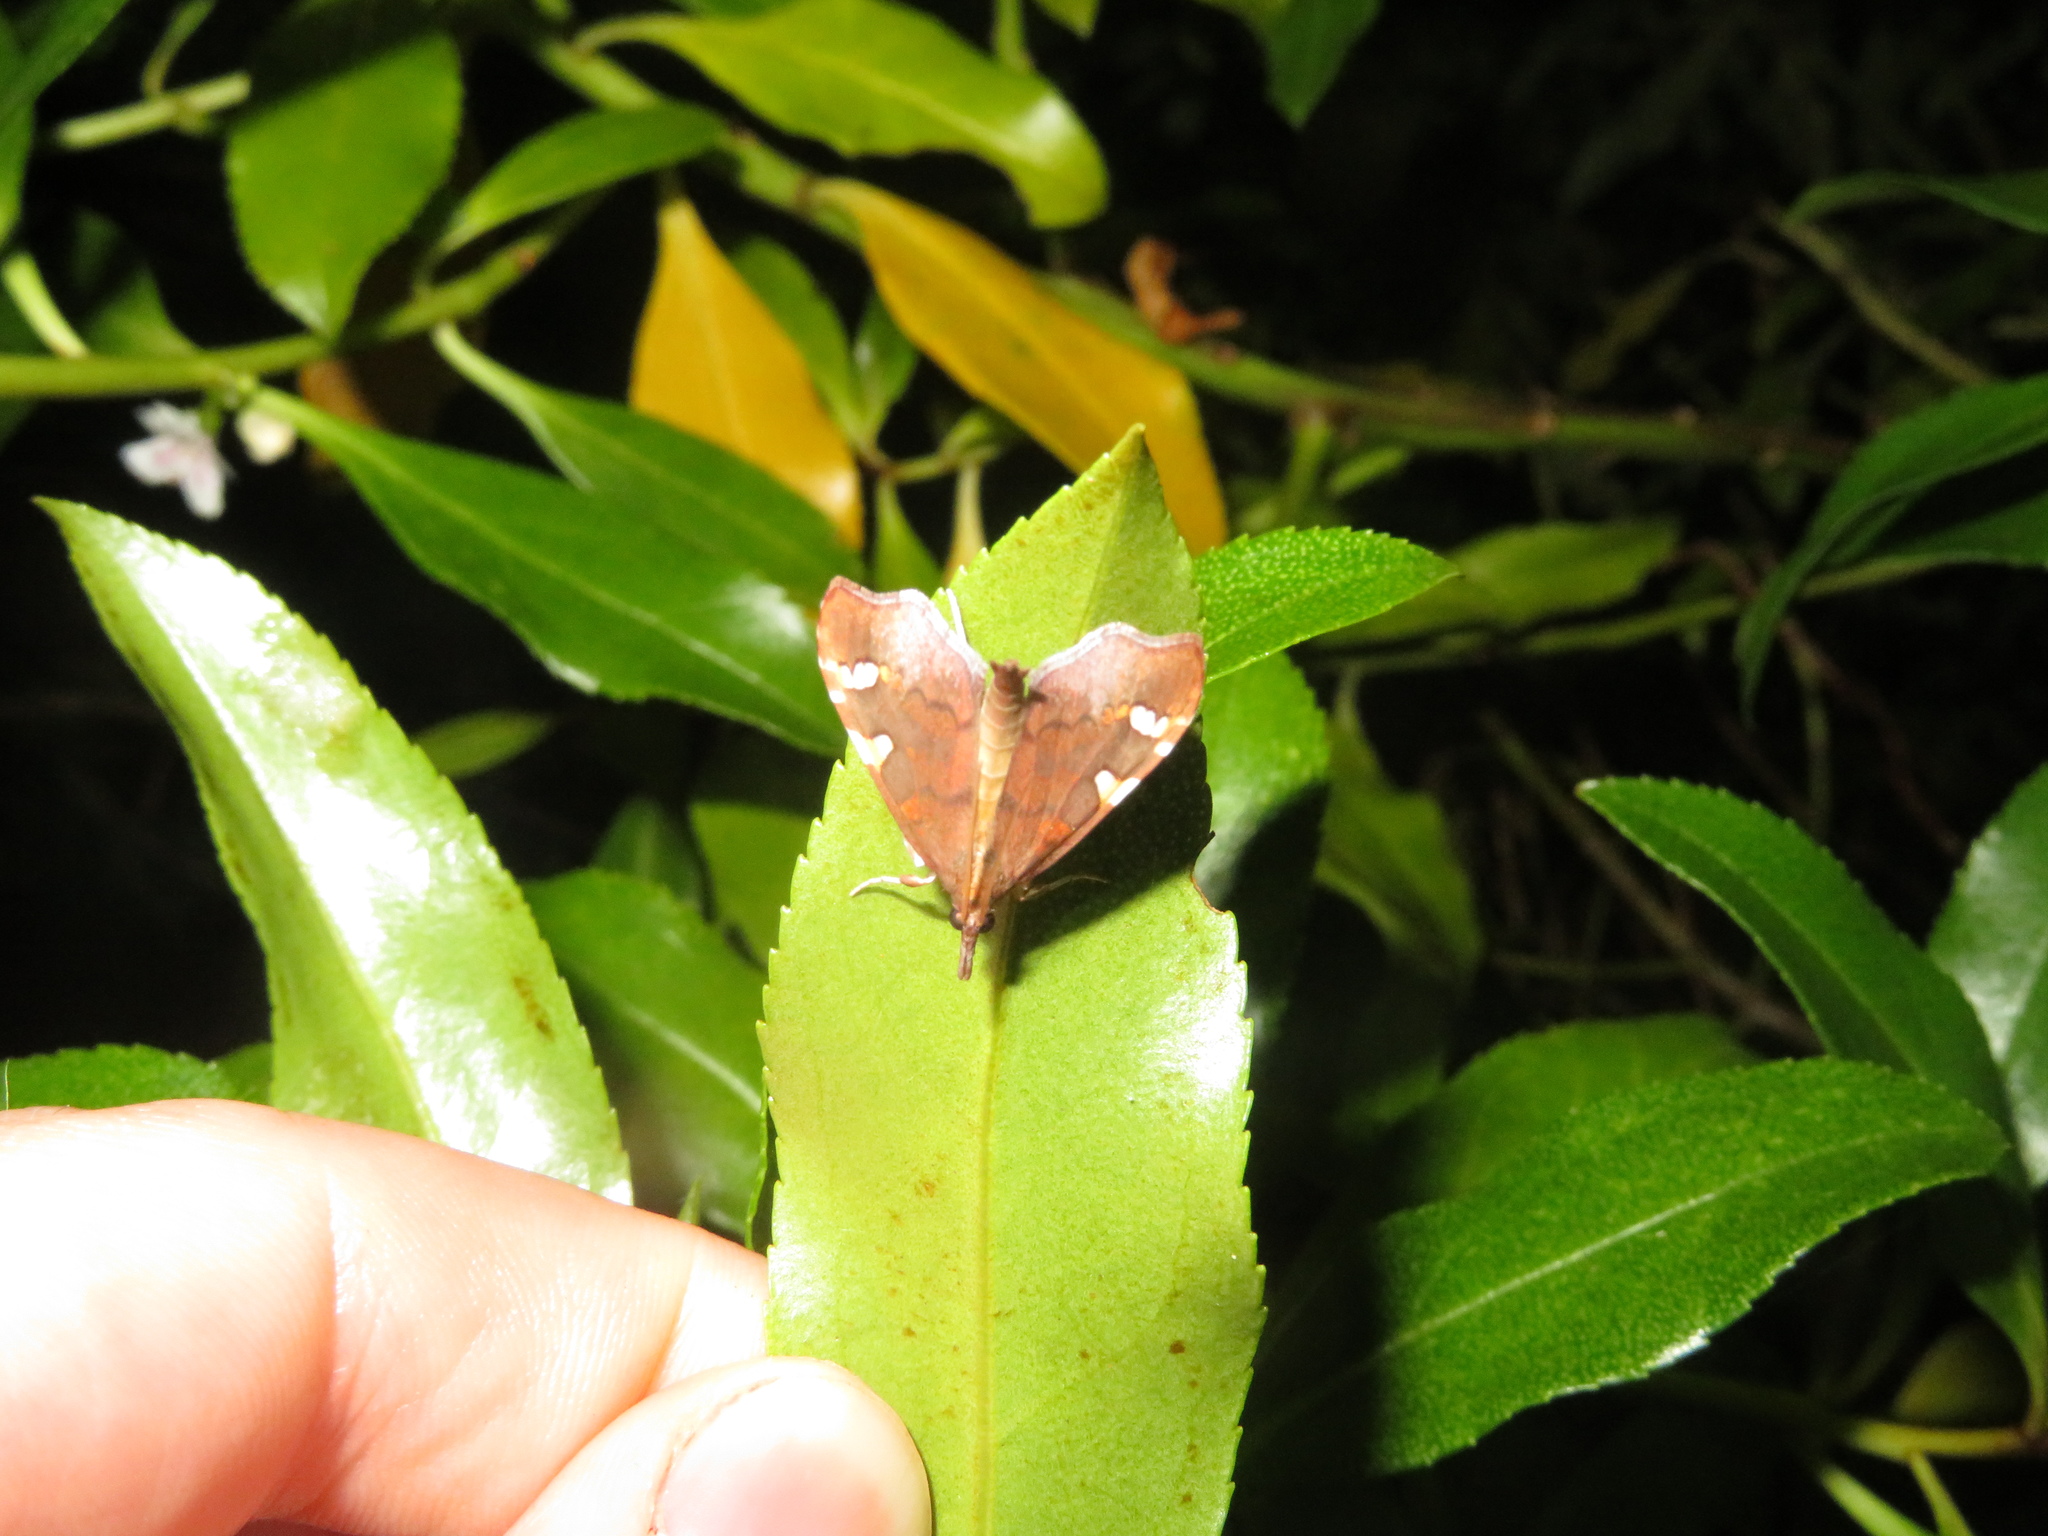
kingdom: Animalia
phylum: Arthropoda
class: Insecta
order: Lepidoptera
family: Crambidae
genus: Deana
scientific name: Deana hybreasalis
